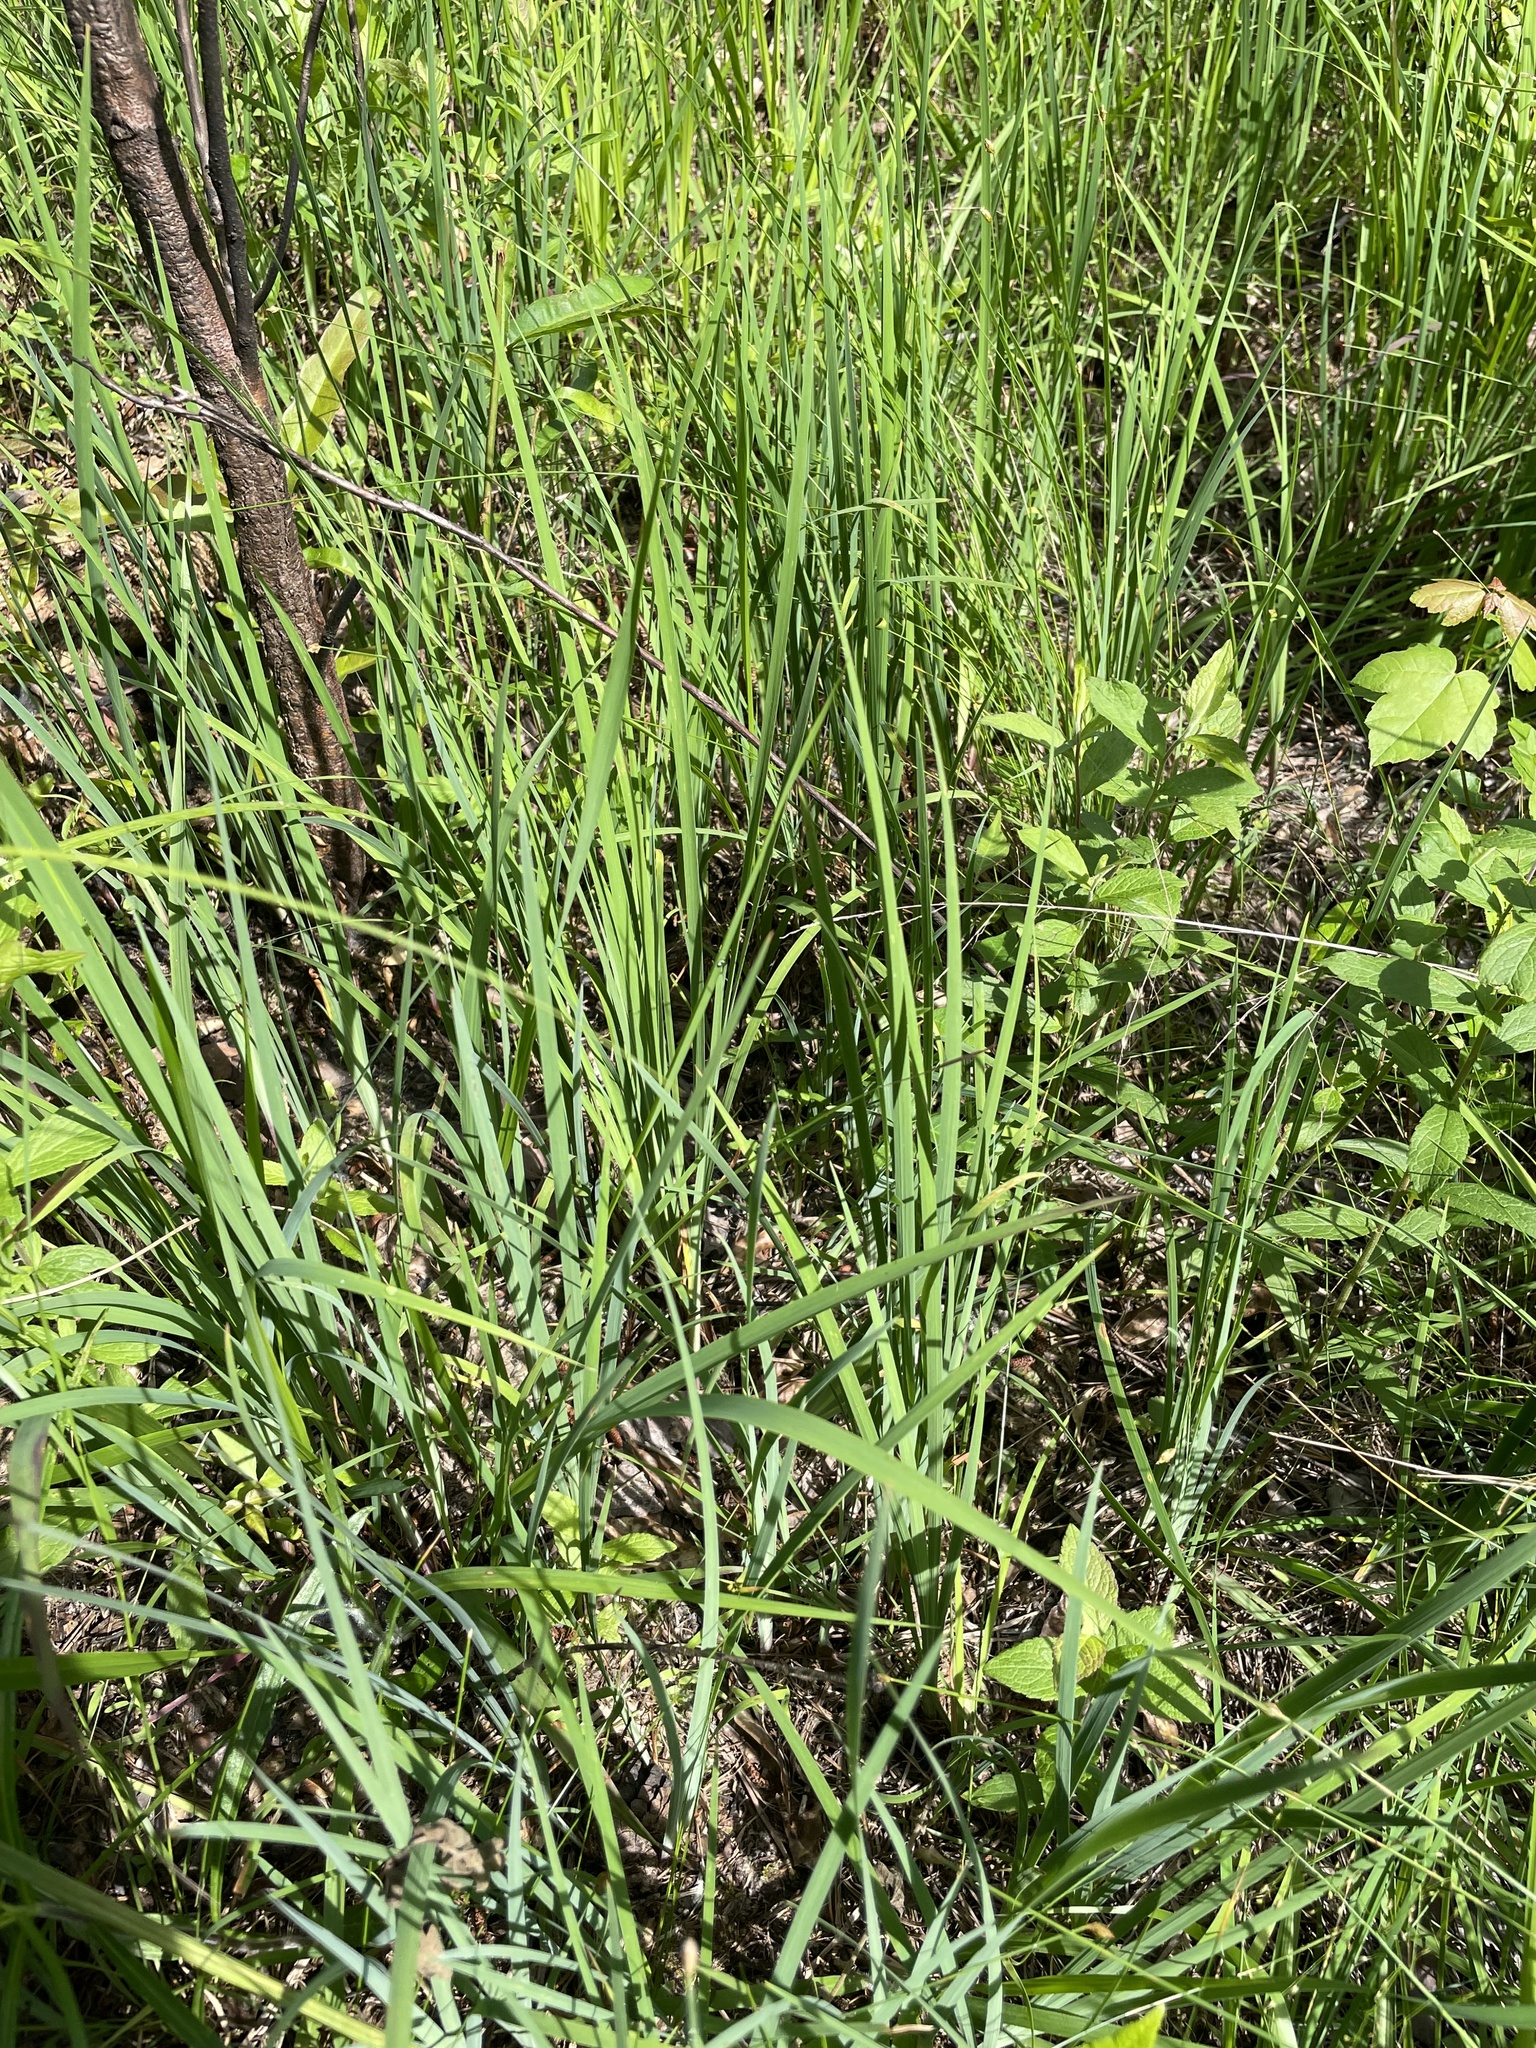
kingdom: Plantae
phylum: Tracheophyta
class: Liliopsida
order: Asparagales
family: Iridaceae
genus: Iris
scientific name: Iris prismatica
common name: Slender blue flag
